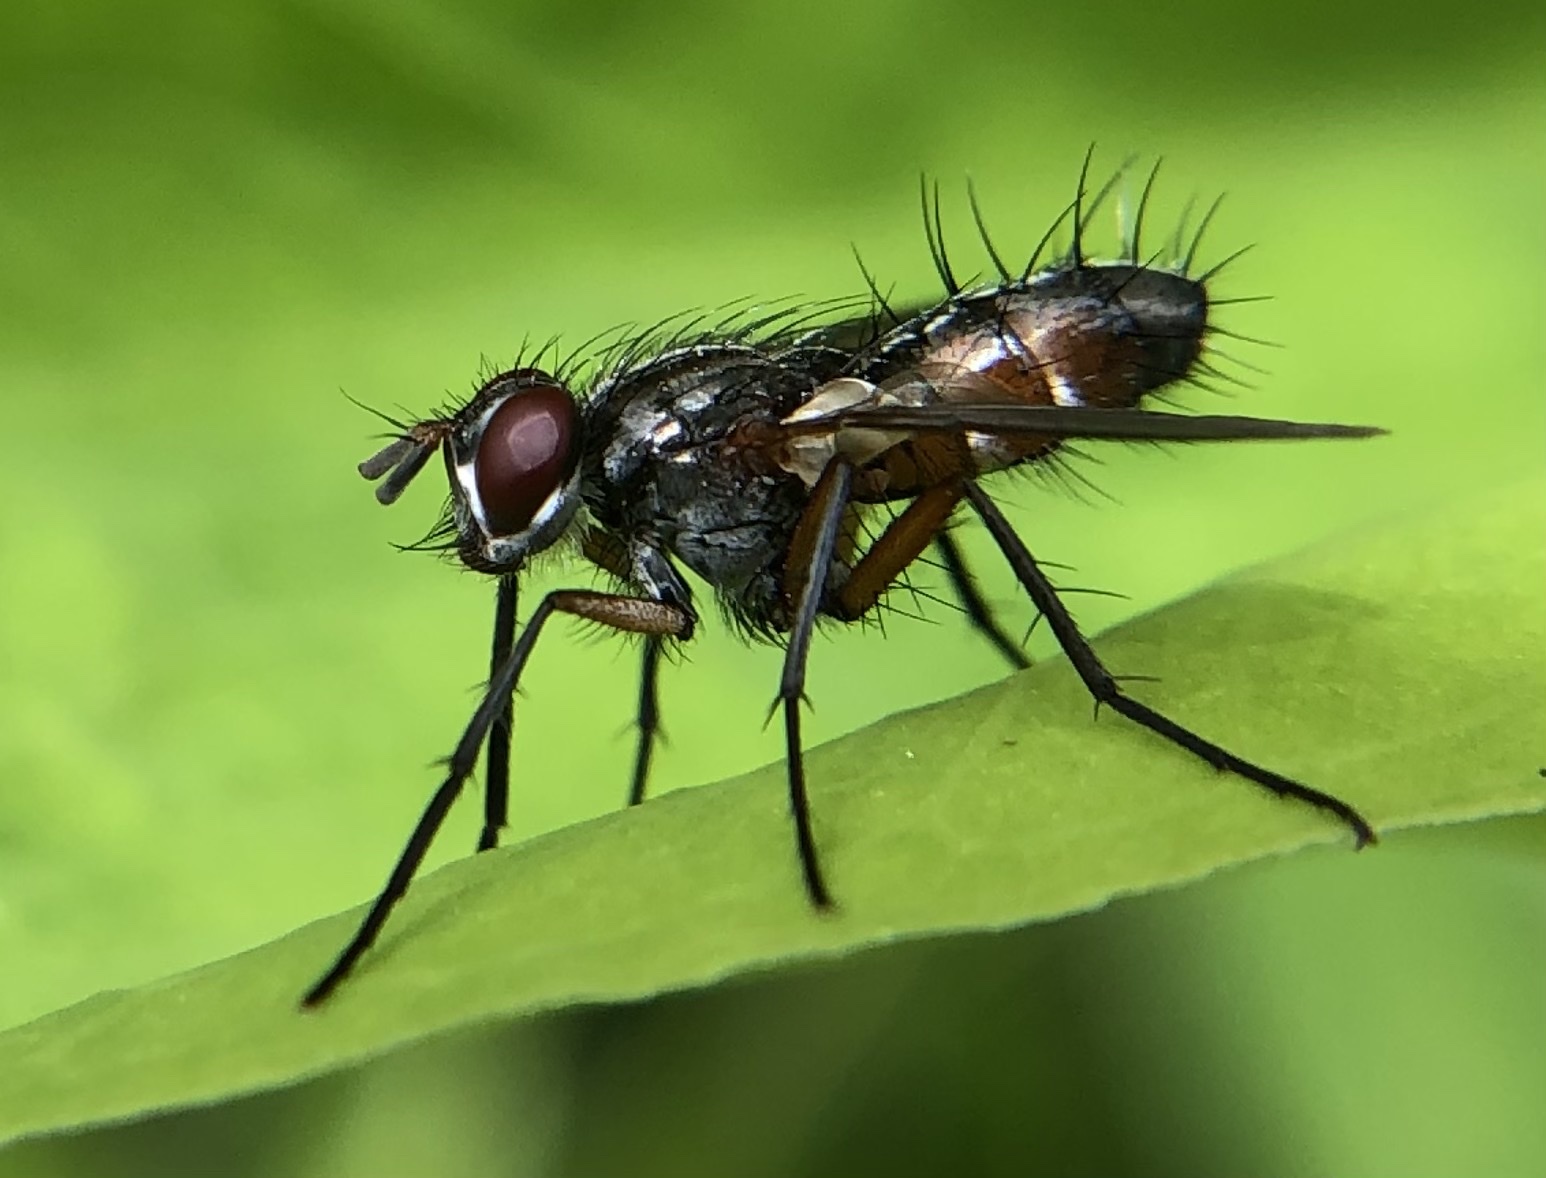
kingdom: Animalia
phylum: Arthropoda
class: Insecta
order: Diptera
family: Tachinidae
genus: Mintho
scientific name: Mintho rufiventris
